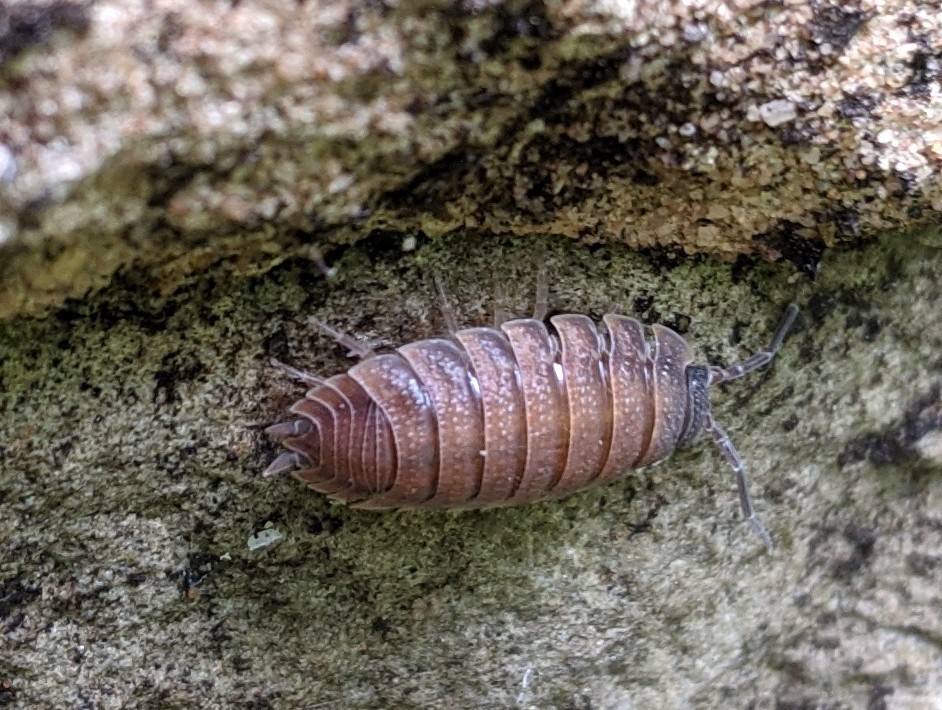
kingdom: Animalia
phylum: Arthropoda
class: Malacostraca
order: Isopoda
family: Porcellionidae
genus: Porcellio
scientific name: Porcellio scaber
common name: Common rough woodlouse
